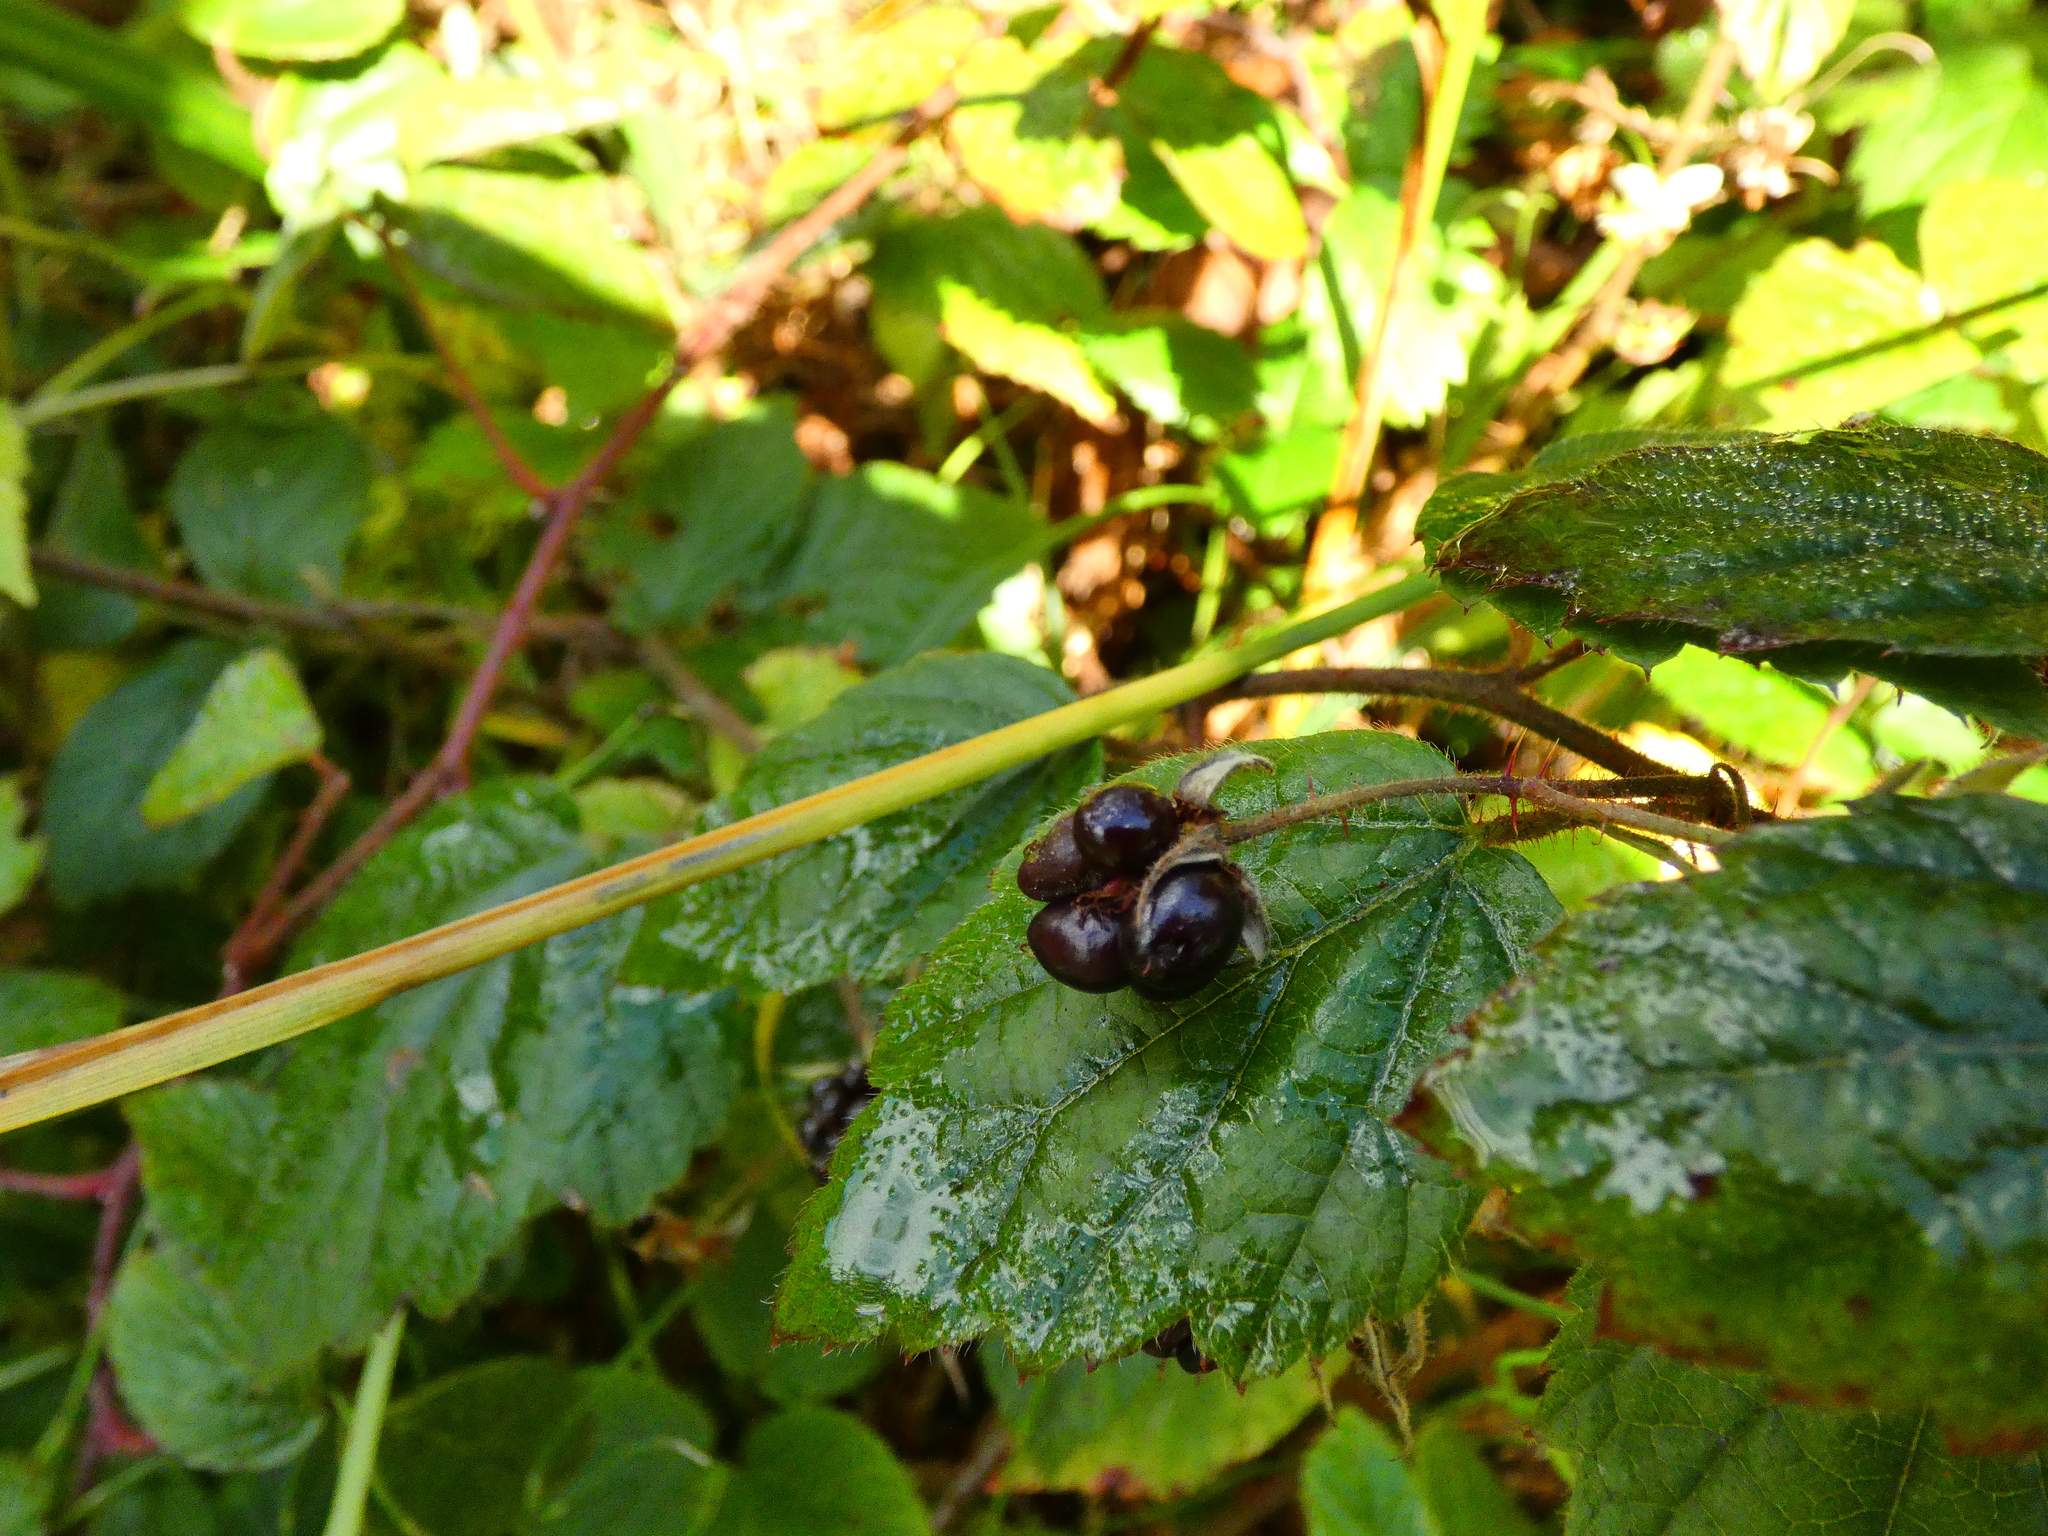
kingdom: Plantae
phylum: Tracheophyta
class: Magnoliopsida
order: Rosales
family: Rosaceae
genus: Rubus
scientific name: Rubus caesius
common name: Dewberry
